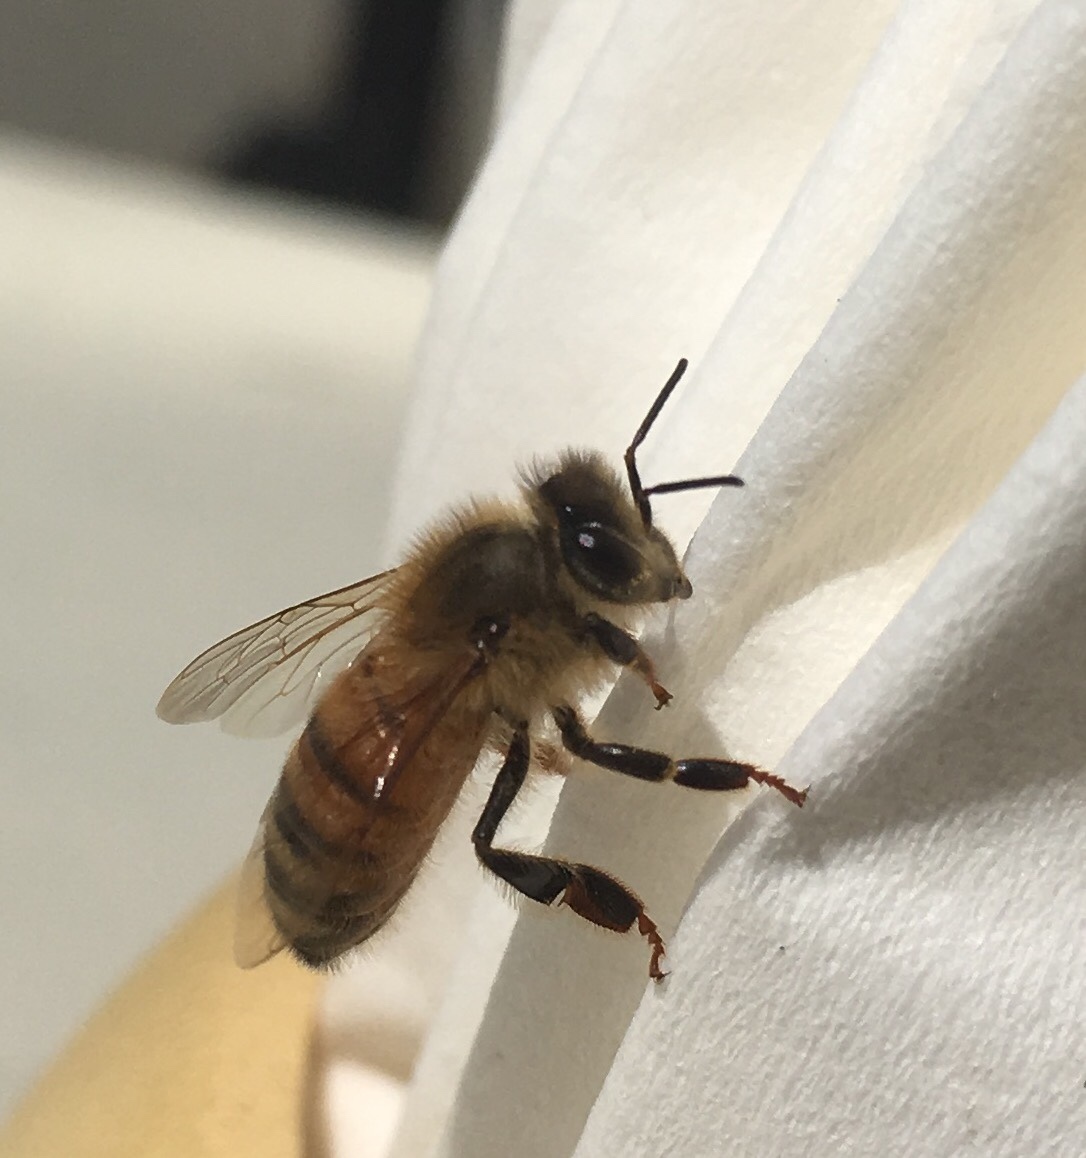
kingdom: Animalia
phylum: Arthropoda
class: Insecta
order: Hymenoptera
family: Apidae
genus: Apis
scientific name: Apis mellifera
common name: Honey bee
